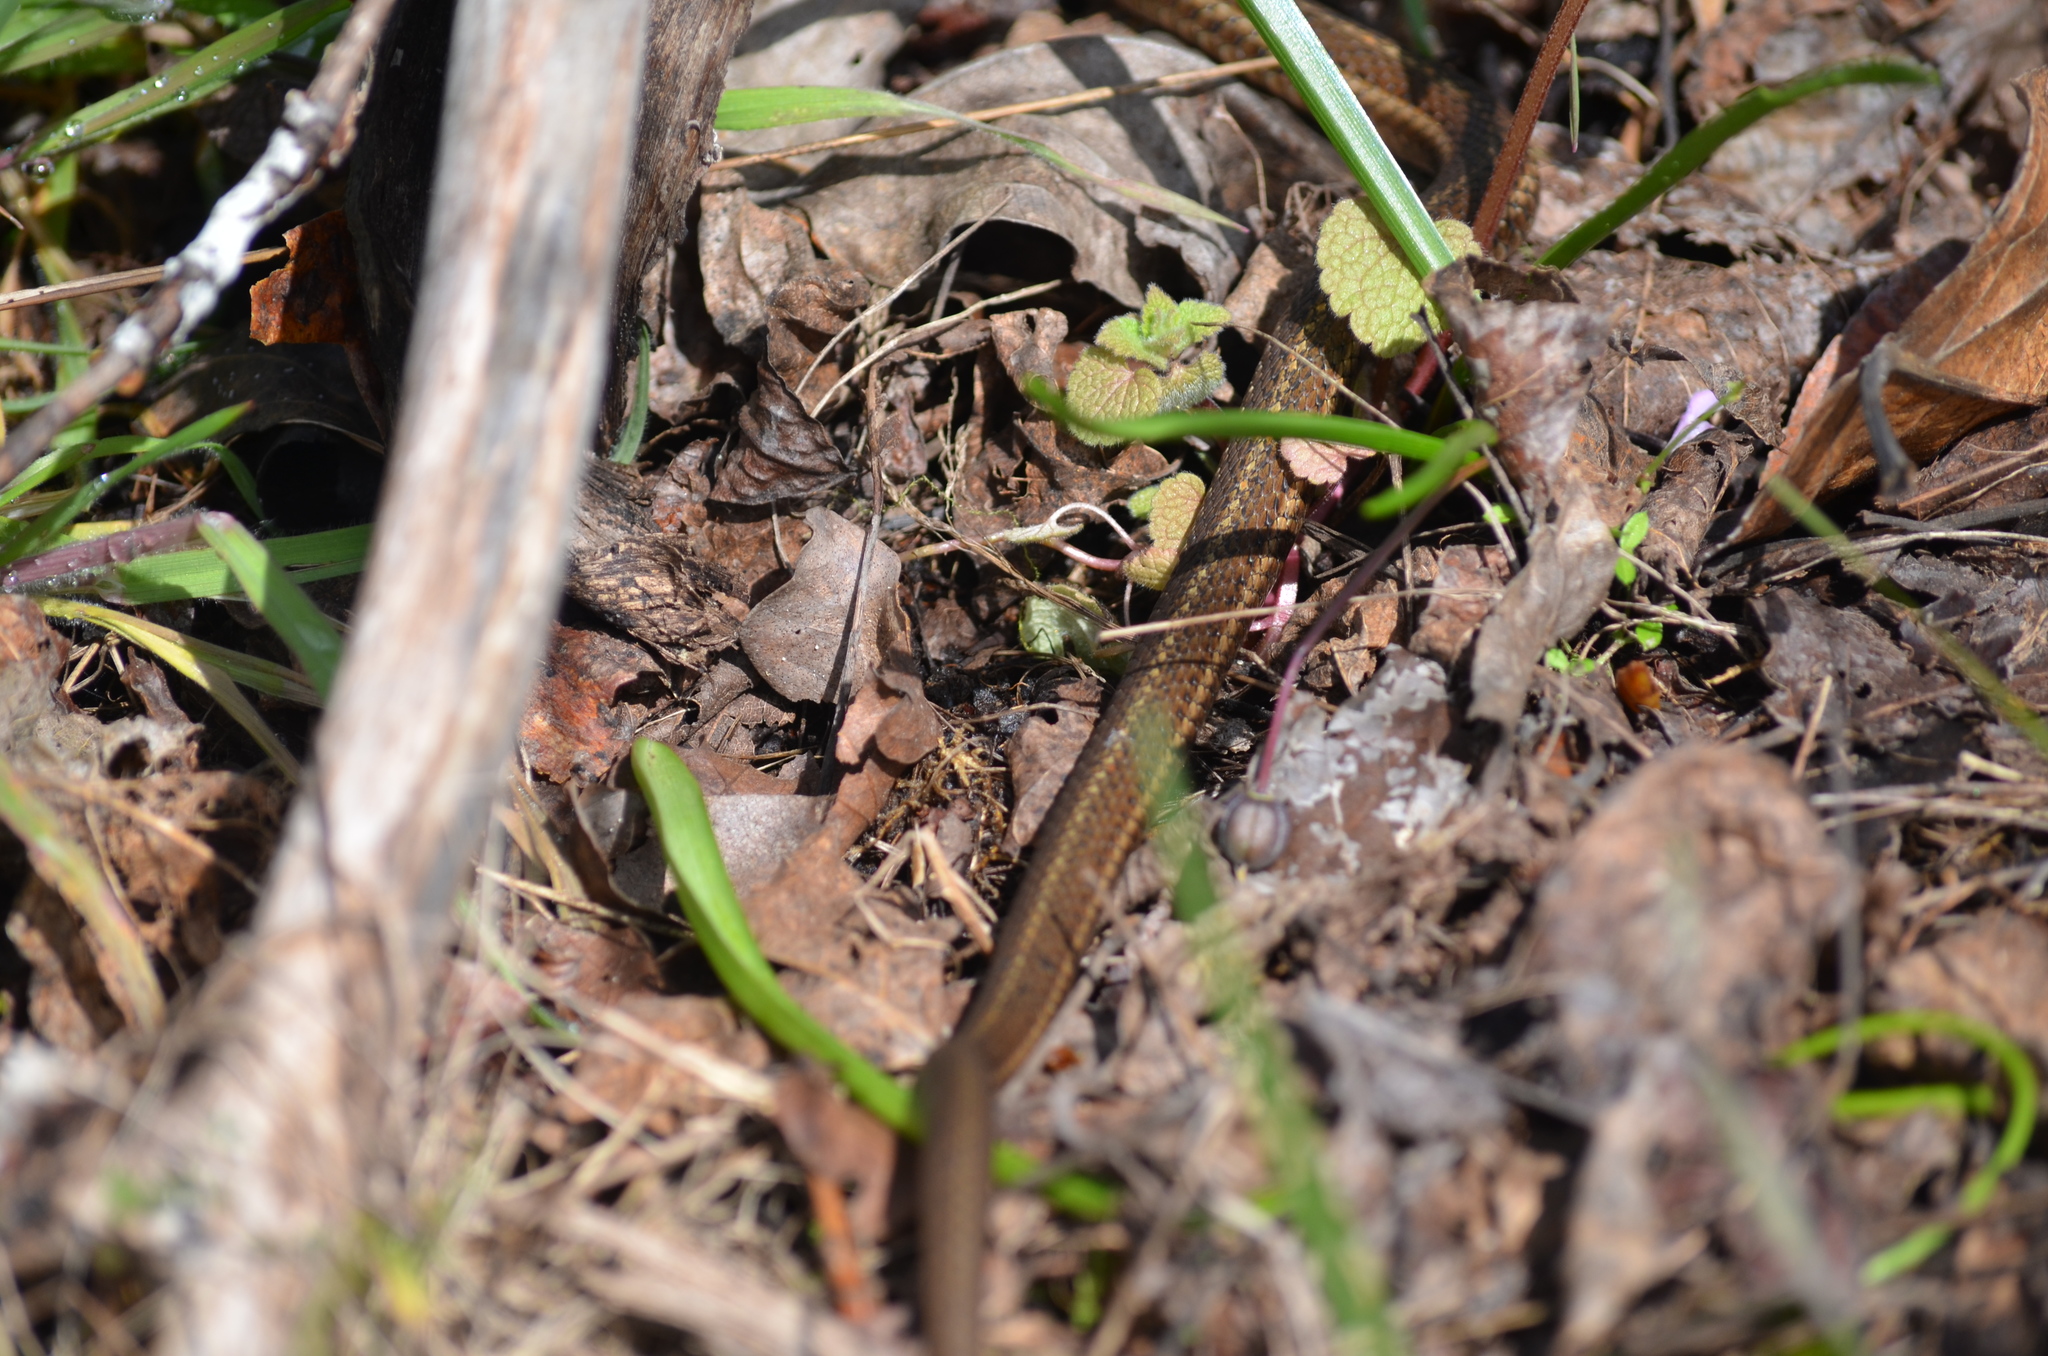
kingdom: Animalia
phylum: Chordata
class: Squamata
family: Colubridae
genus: Thamnophis
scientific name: Thamnophis ordinoides
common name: Northwestern garter snake
